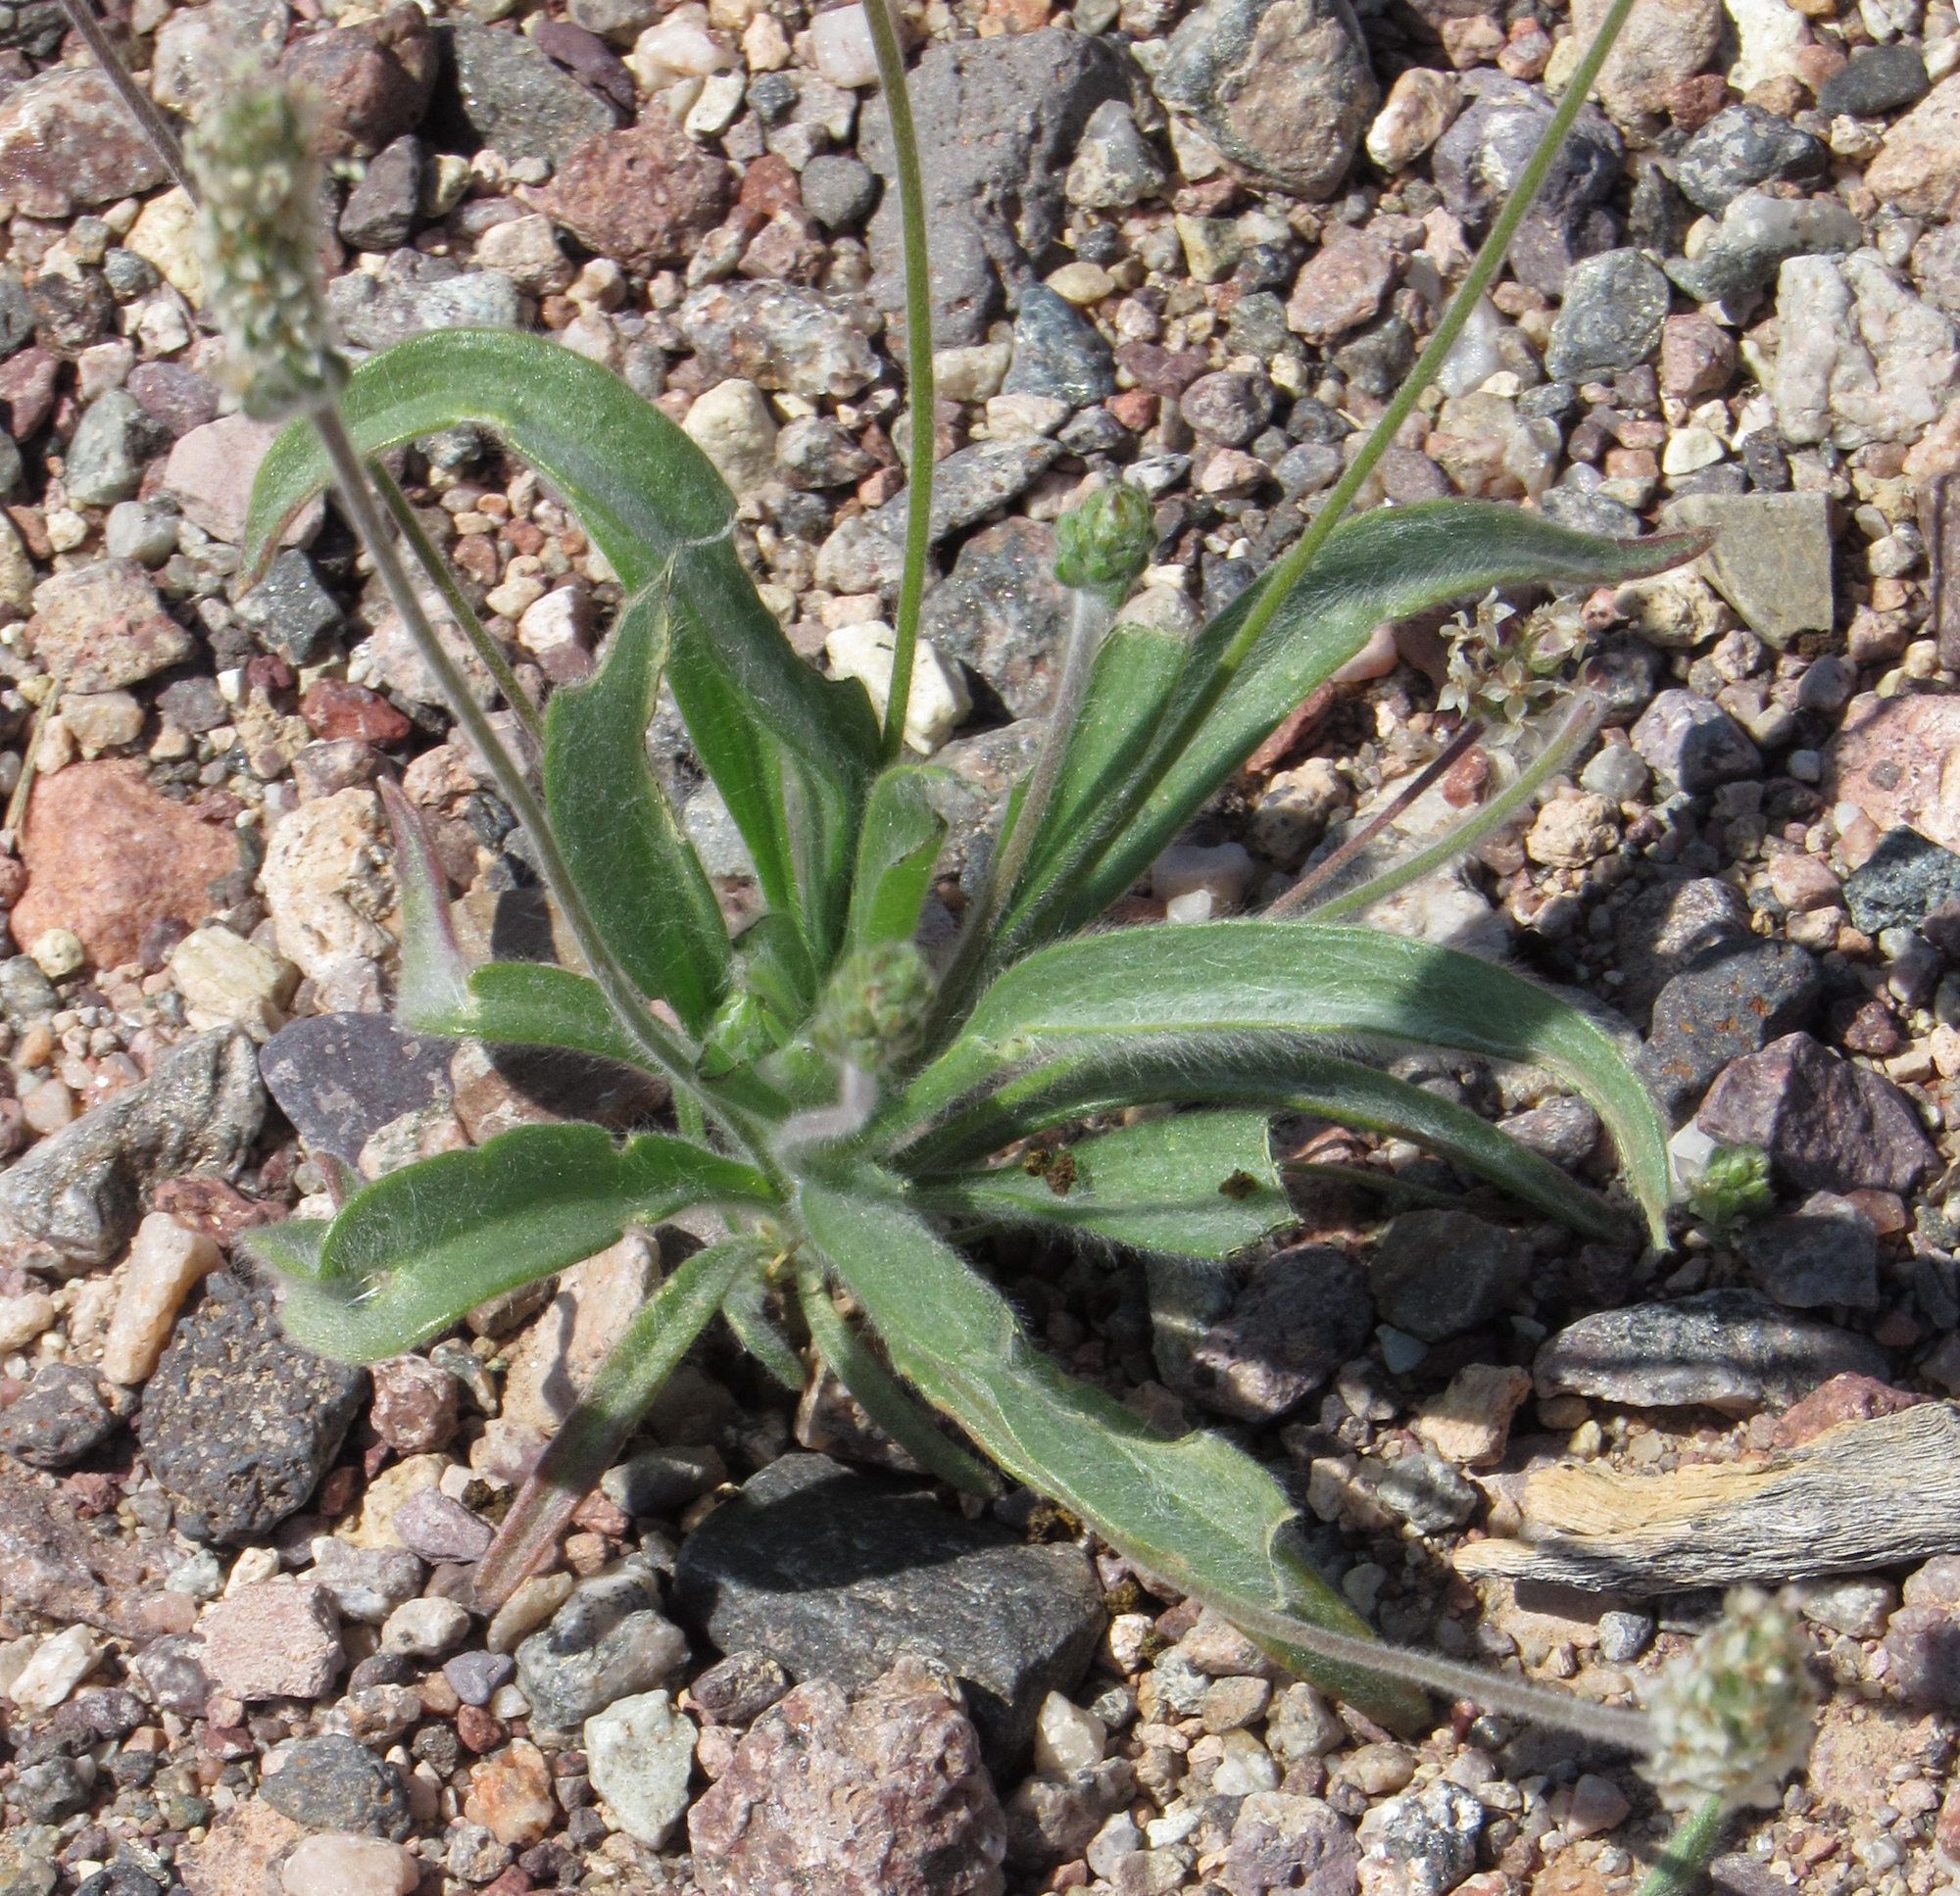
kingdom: Plantae
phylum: Tracheophyta
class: Magnoliopsida
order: Lamiales
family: Plantaginaceae
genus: Plantago
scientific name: Plantago ovata
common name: Blond plantain
